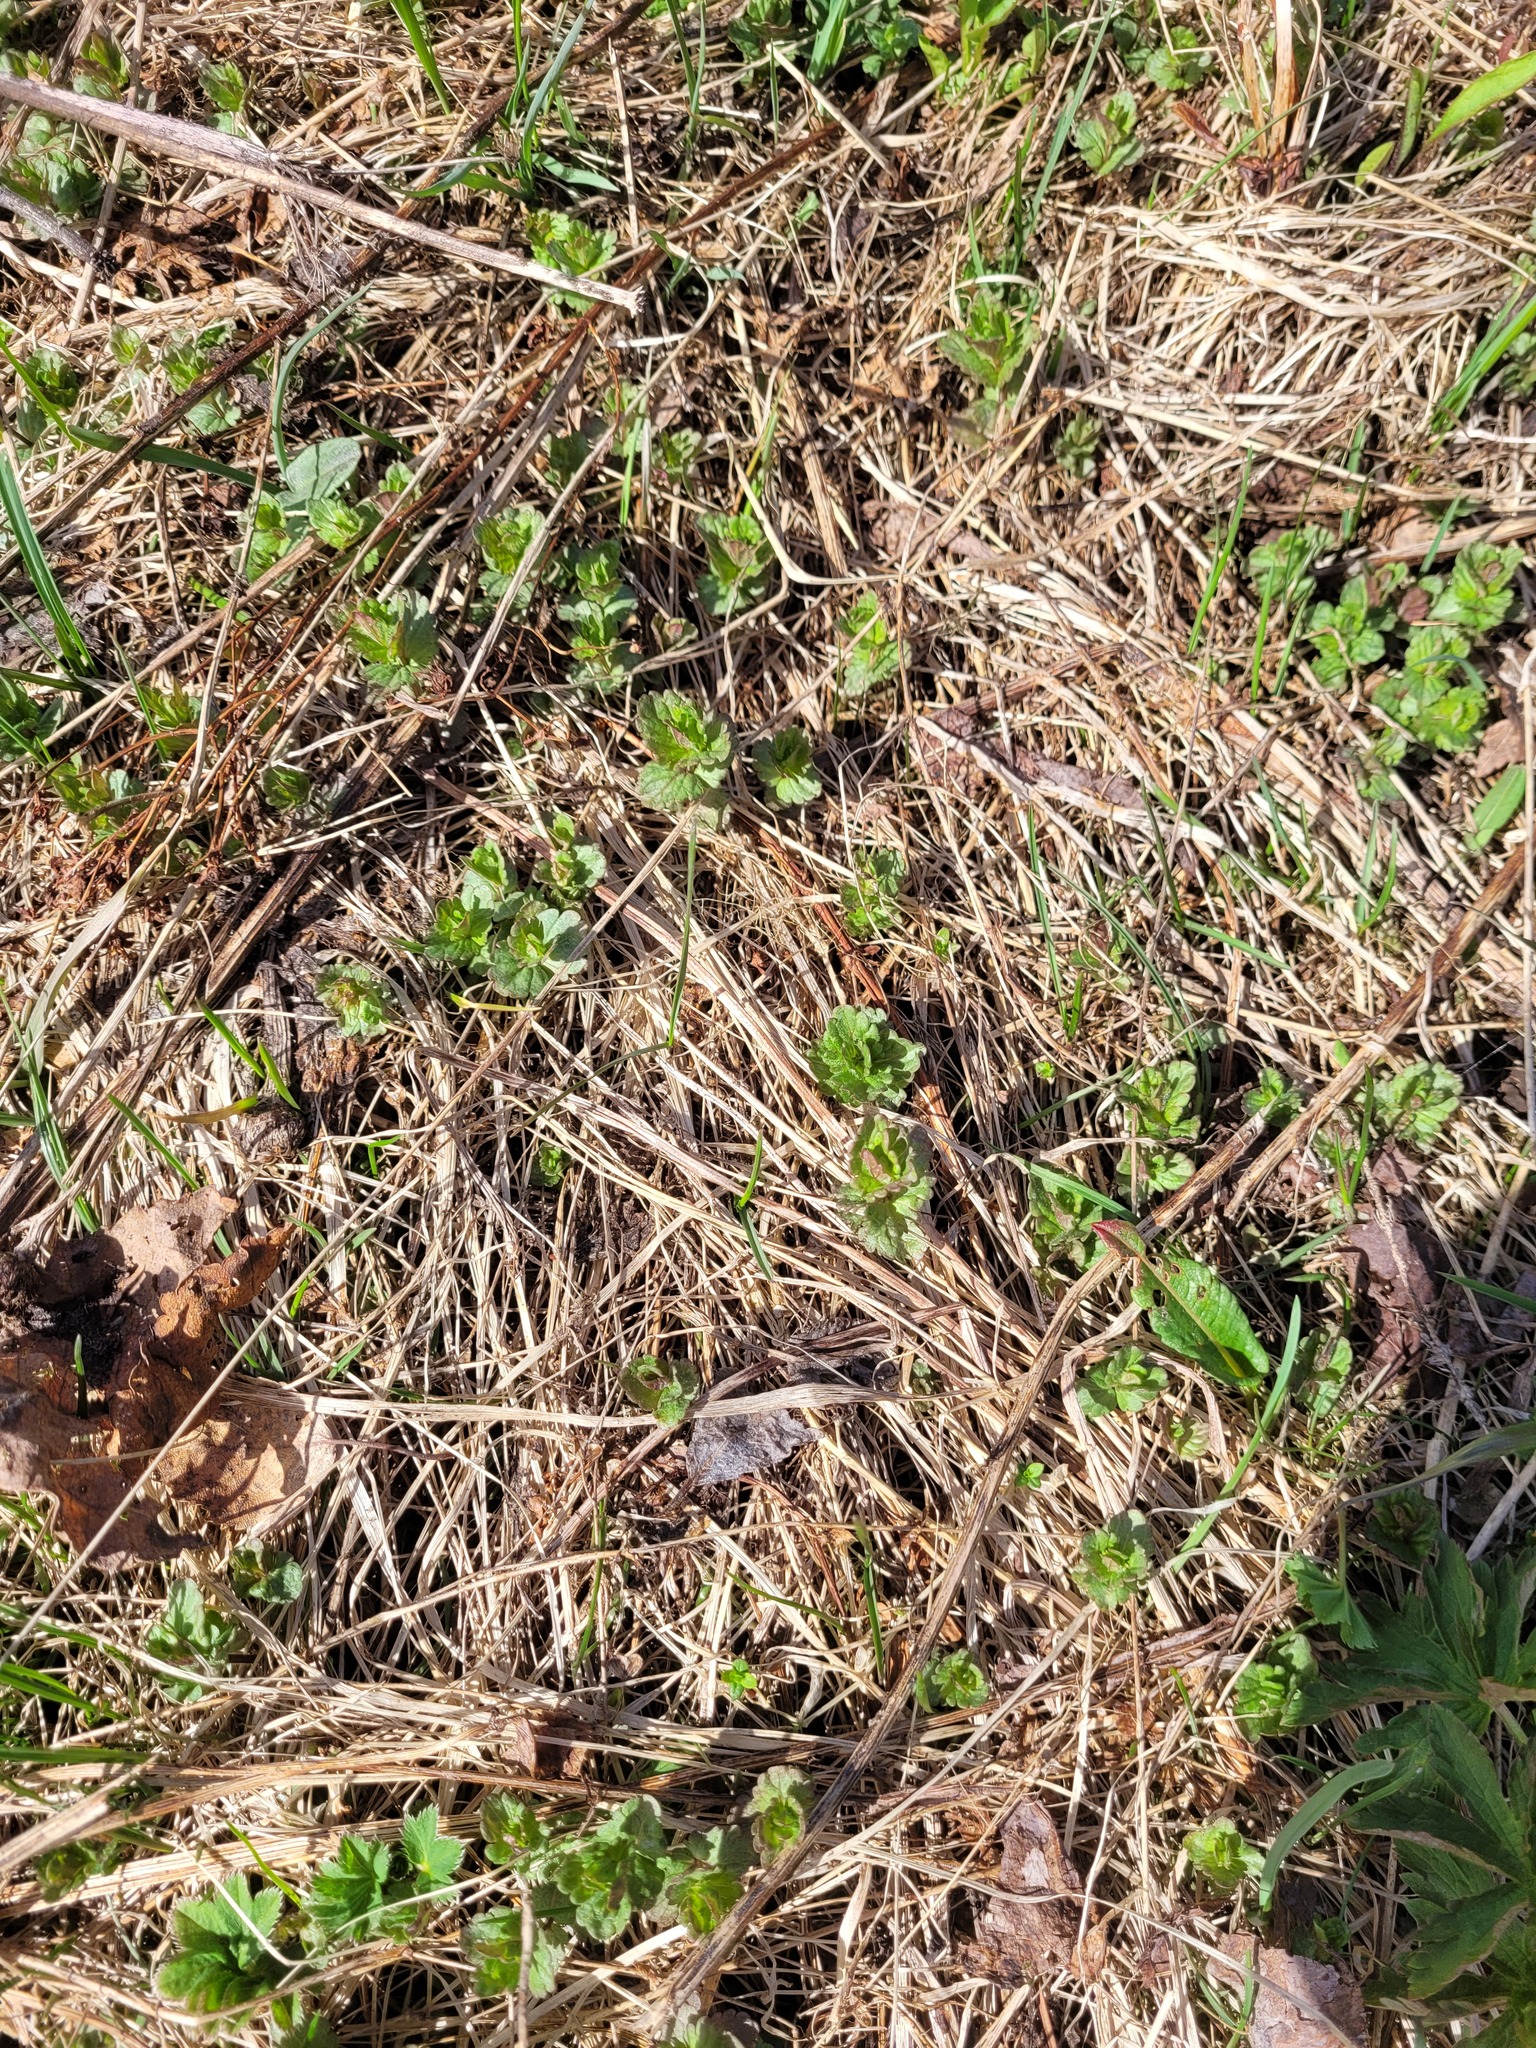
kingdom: Plantae
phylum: Tracheophyta
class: Magnoliopsida
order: Lamiales
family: Plantaginaceae
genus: Veronica
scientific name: Veronica chamaedrys
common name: Germander speedwell
